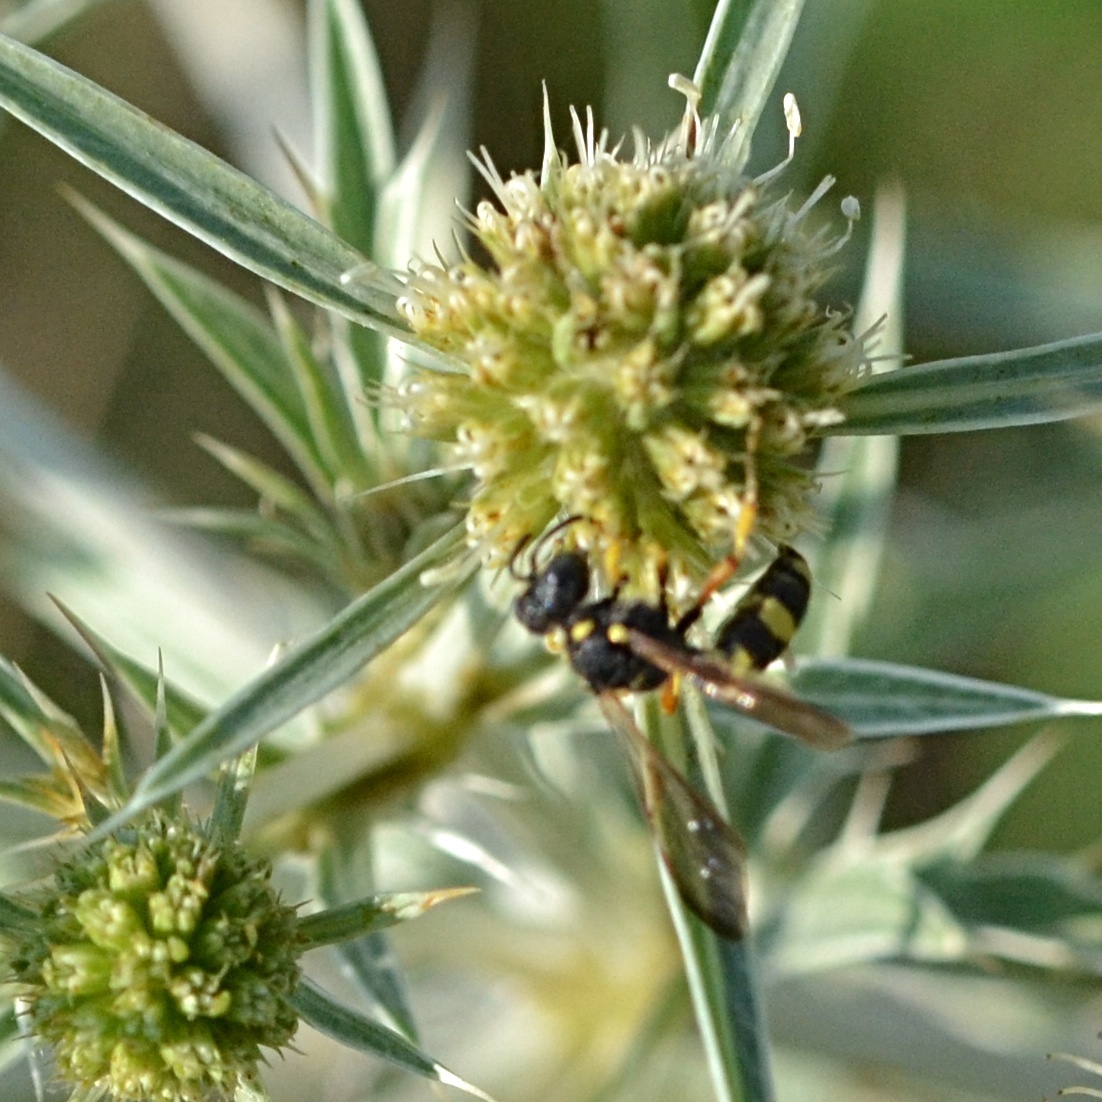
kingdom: Animalia
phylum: Arthropoda
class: Insecta
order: Hymenoptera
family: Crabronidae
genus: Cerceris
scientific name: Cerceris rybyensis
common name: Ornate tailed digger wasp
